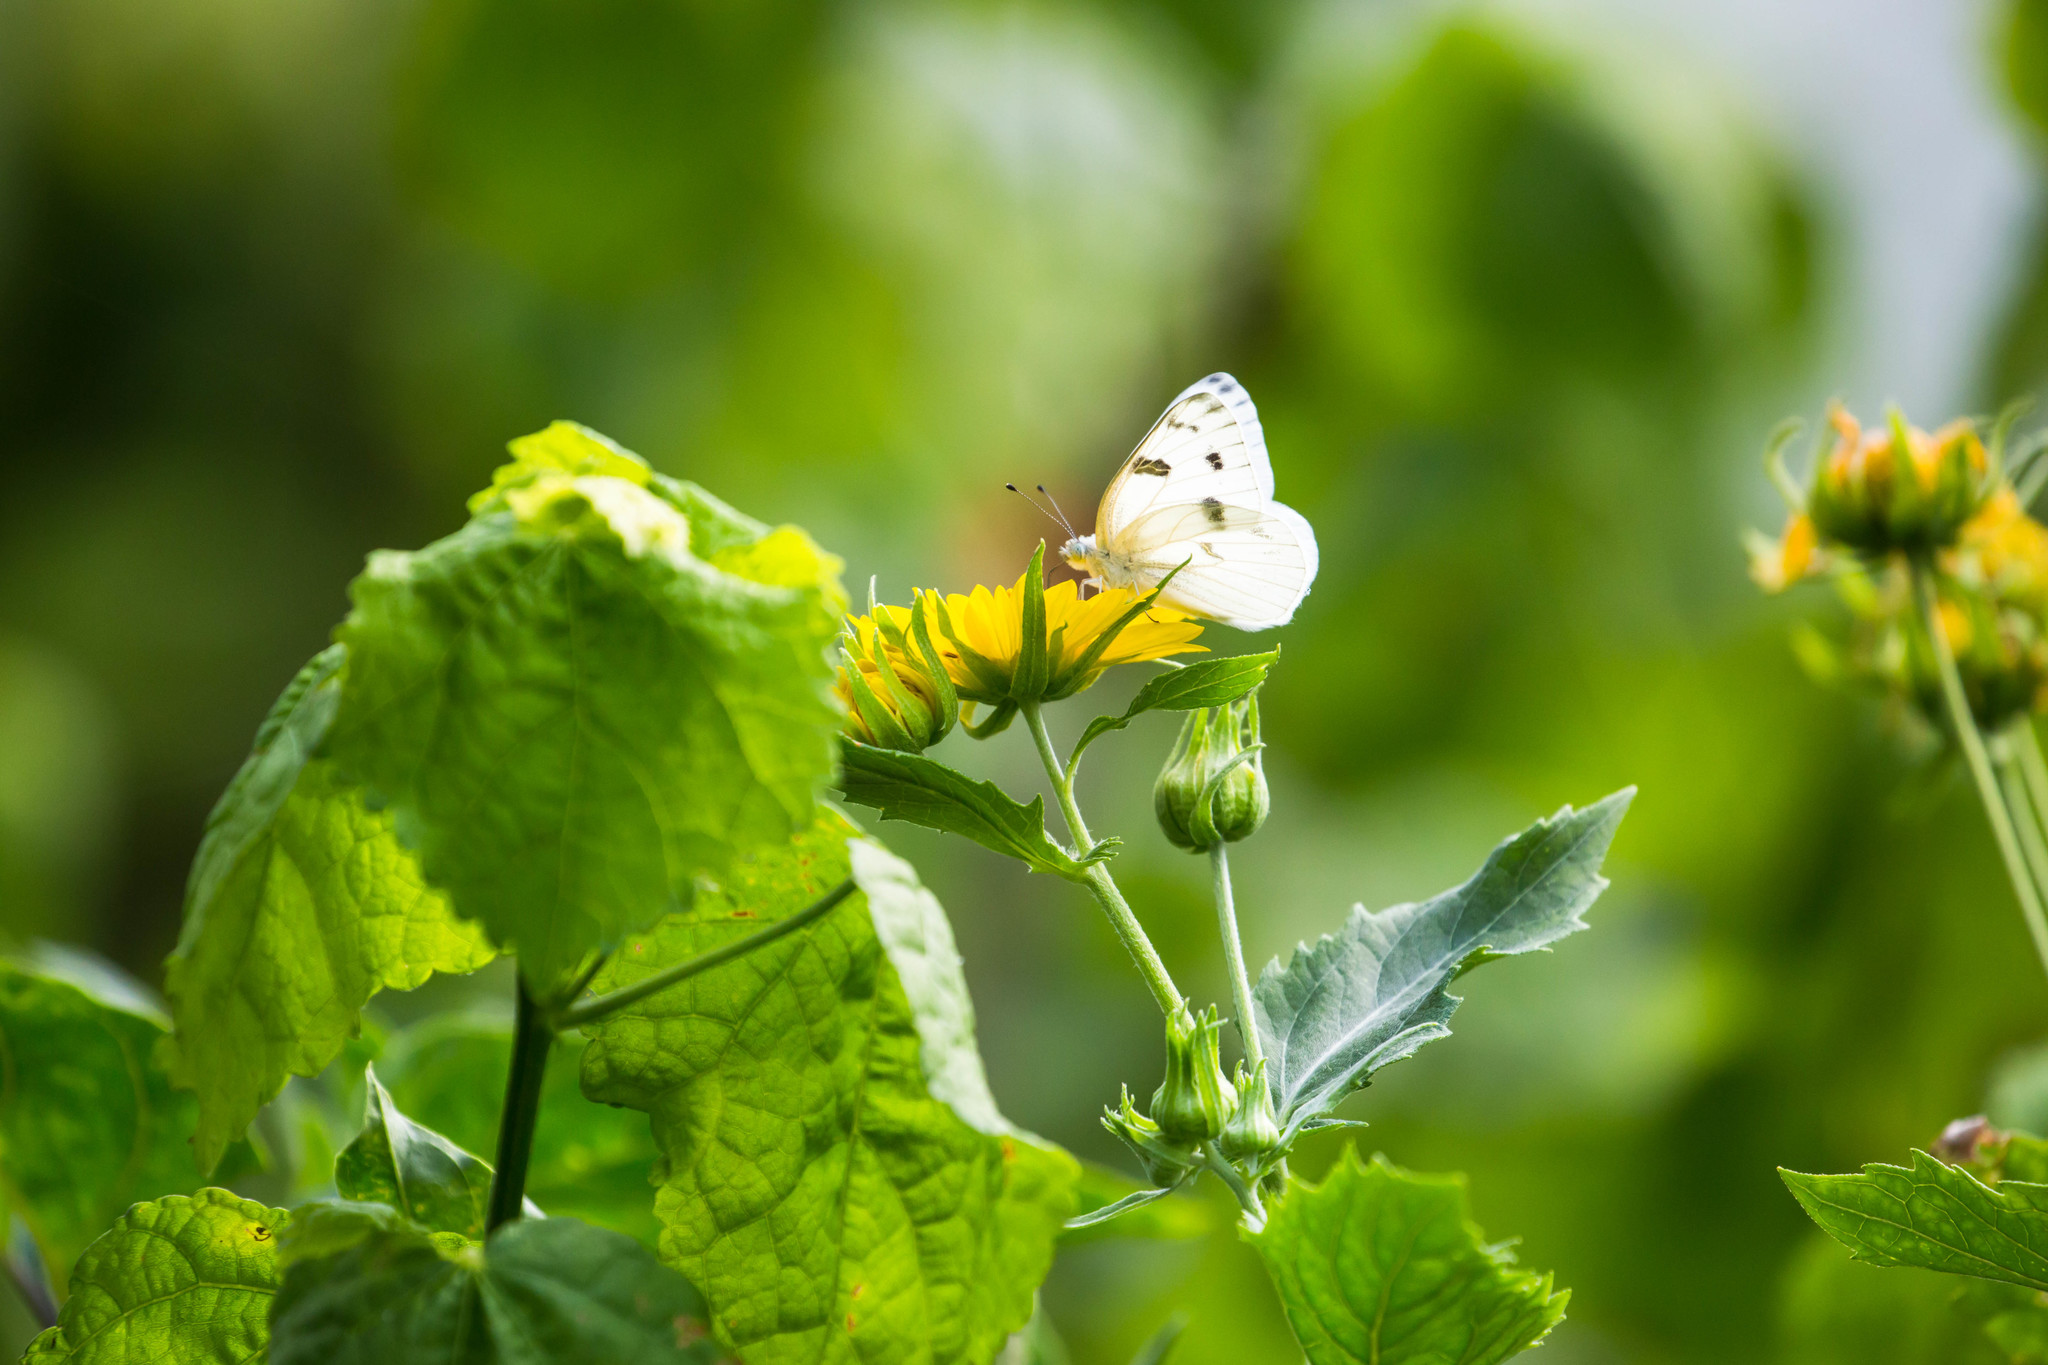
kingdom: Animalia
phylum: Arthropoda
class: Insecta
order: Lepidoptera
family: Pieridae
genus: Pontia
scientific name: Pontia protodice
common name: Checkered white
